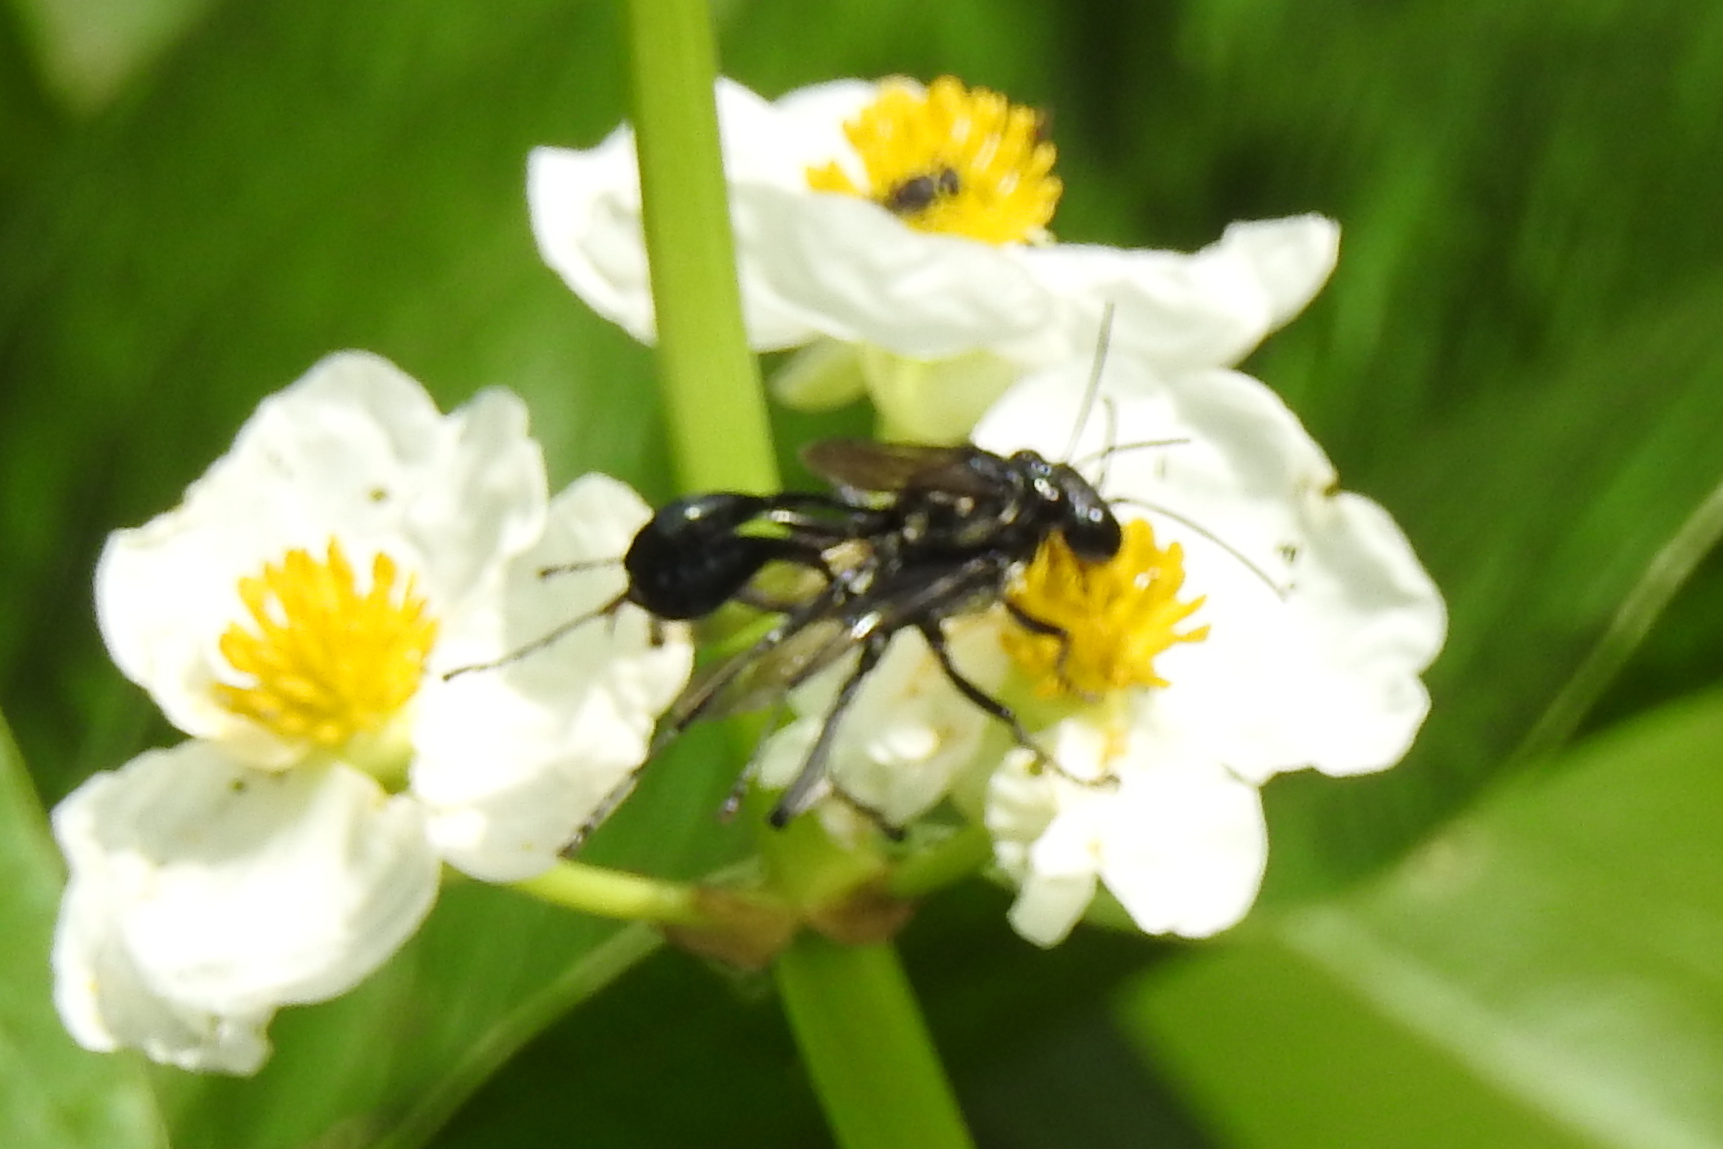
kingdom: Animalia
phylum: Arthropoda
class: Insecta
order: Hymenoptera
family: Sphecidae
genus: Eremnophila
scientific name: Eremnophila aureonotata
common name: Gold-marked thread-waisted wasp
